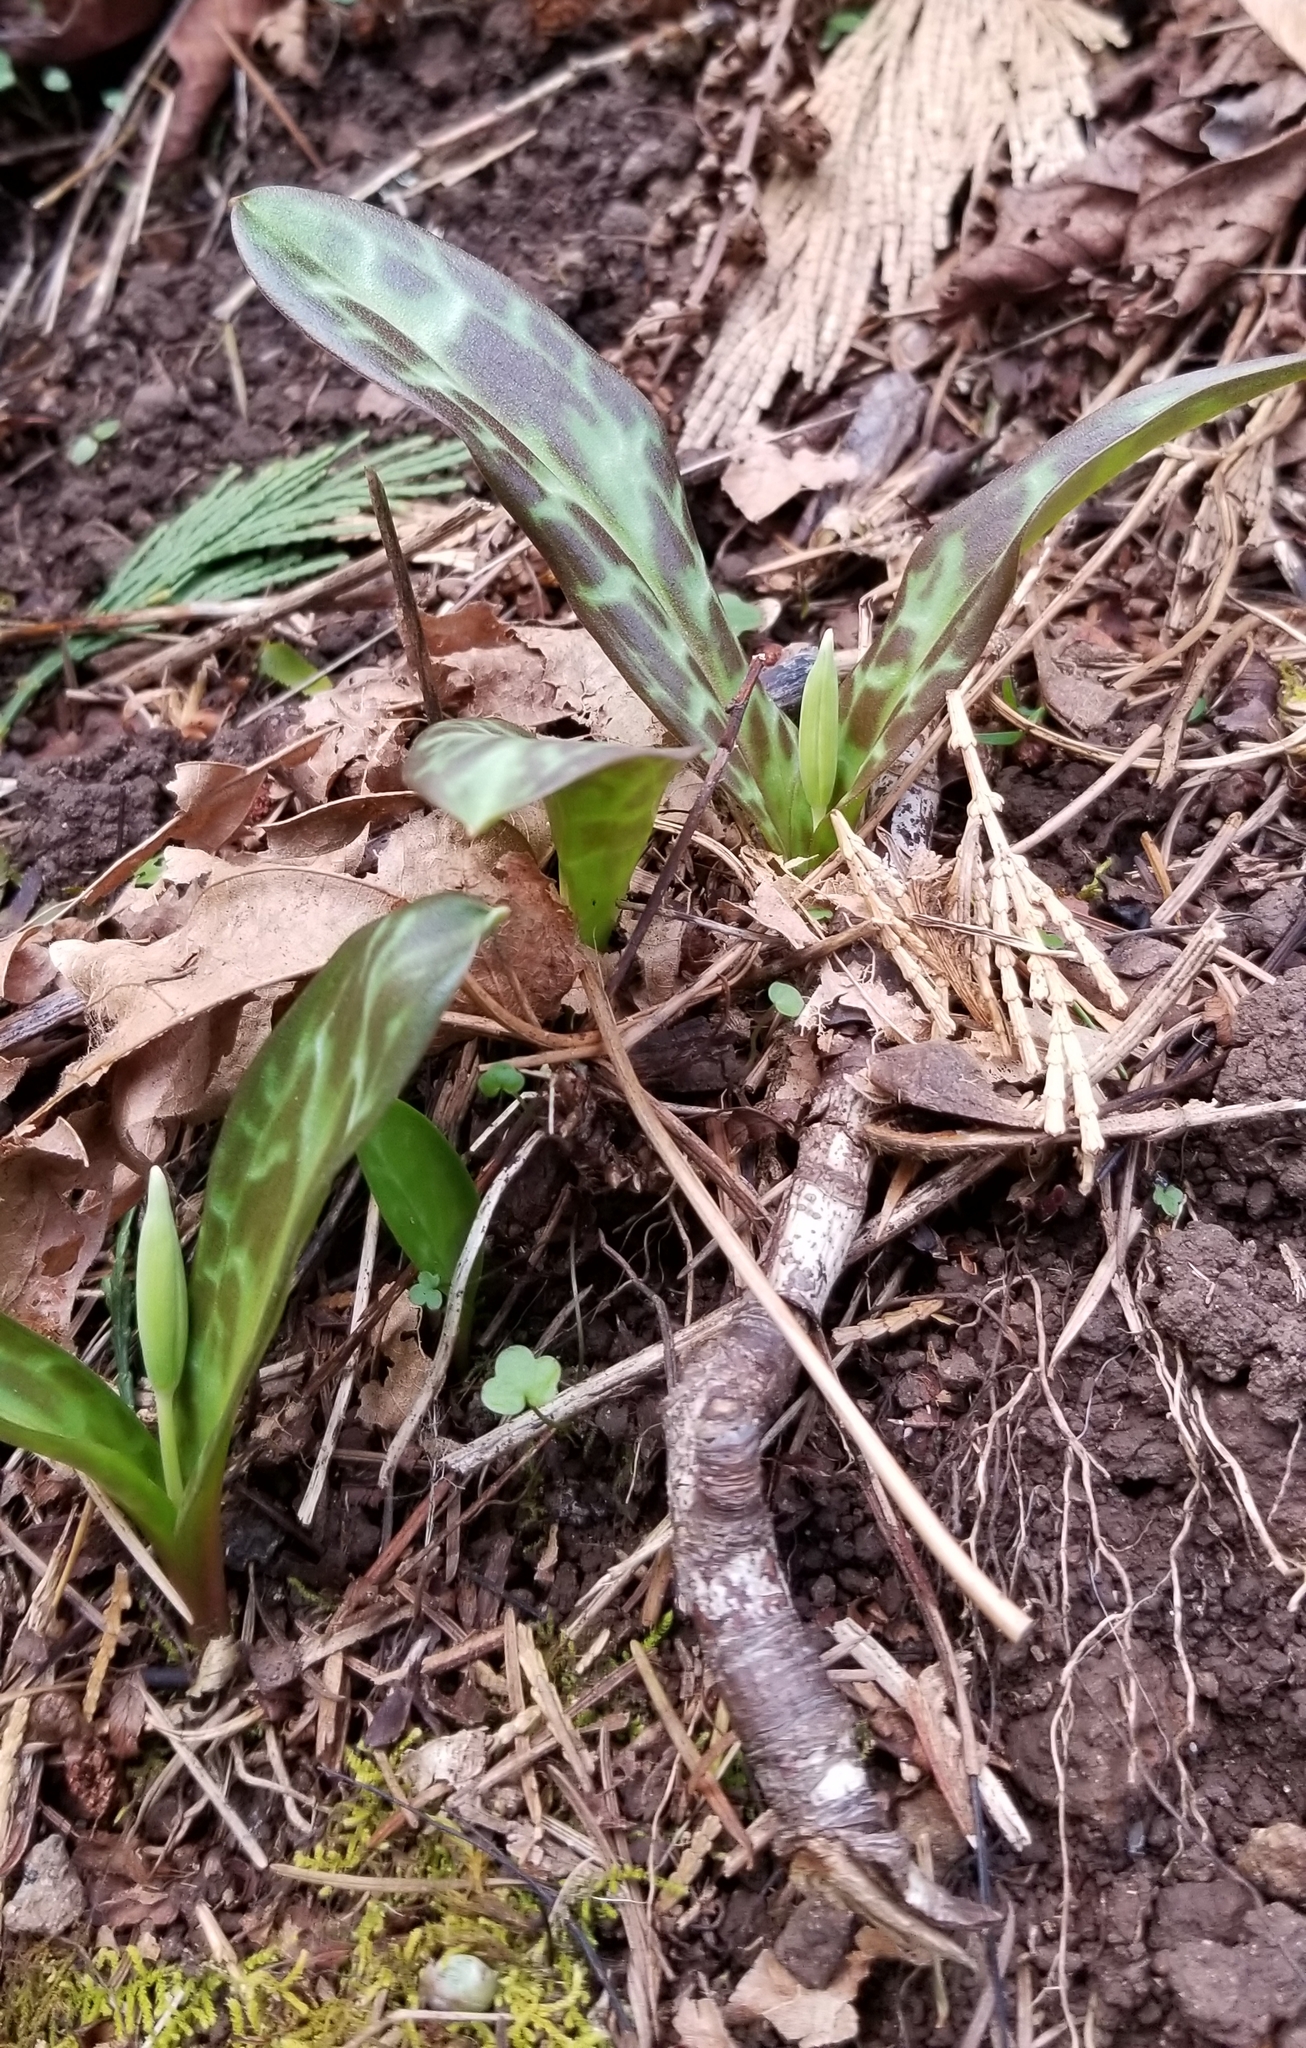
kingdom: Plantae
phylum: Tracheophyta
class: Liliopsida
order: Liliales
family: Liliaceae
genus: Erythronium
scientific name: Erythronium oregonum
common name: Giant adder's-tongue
